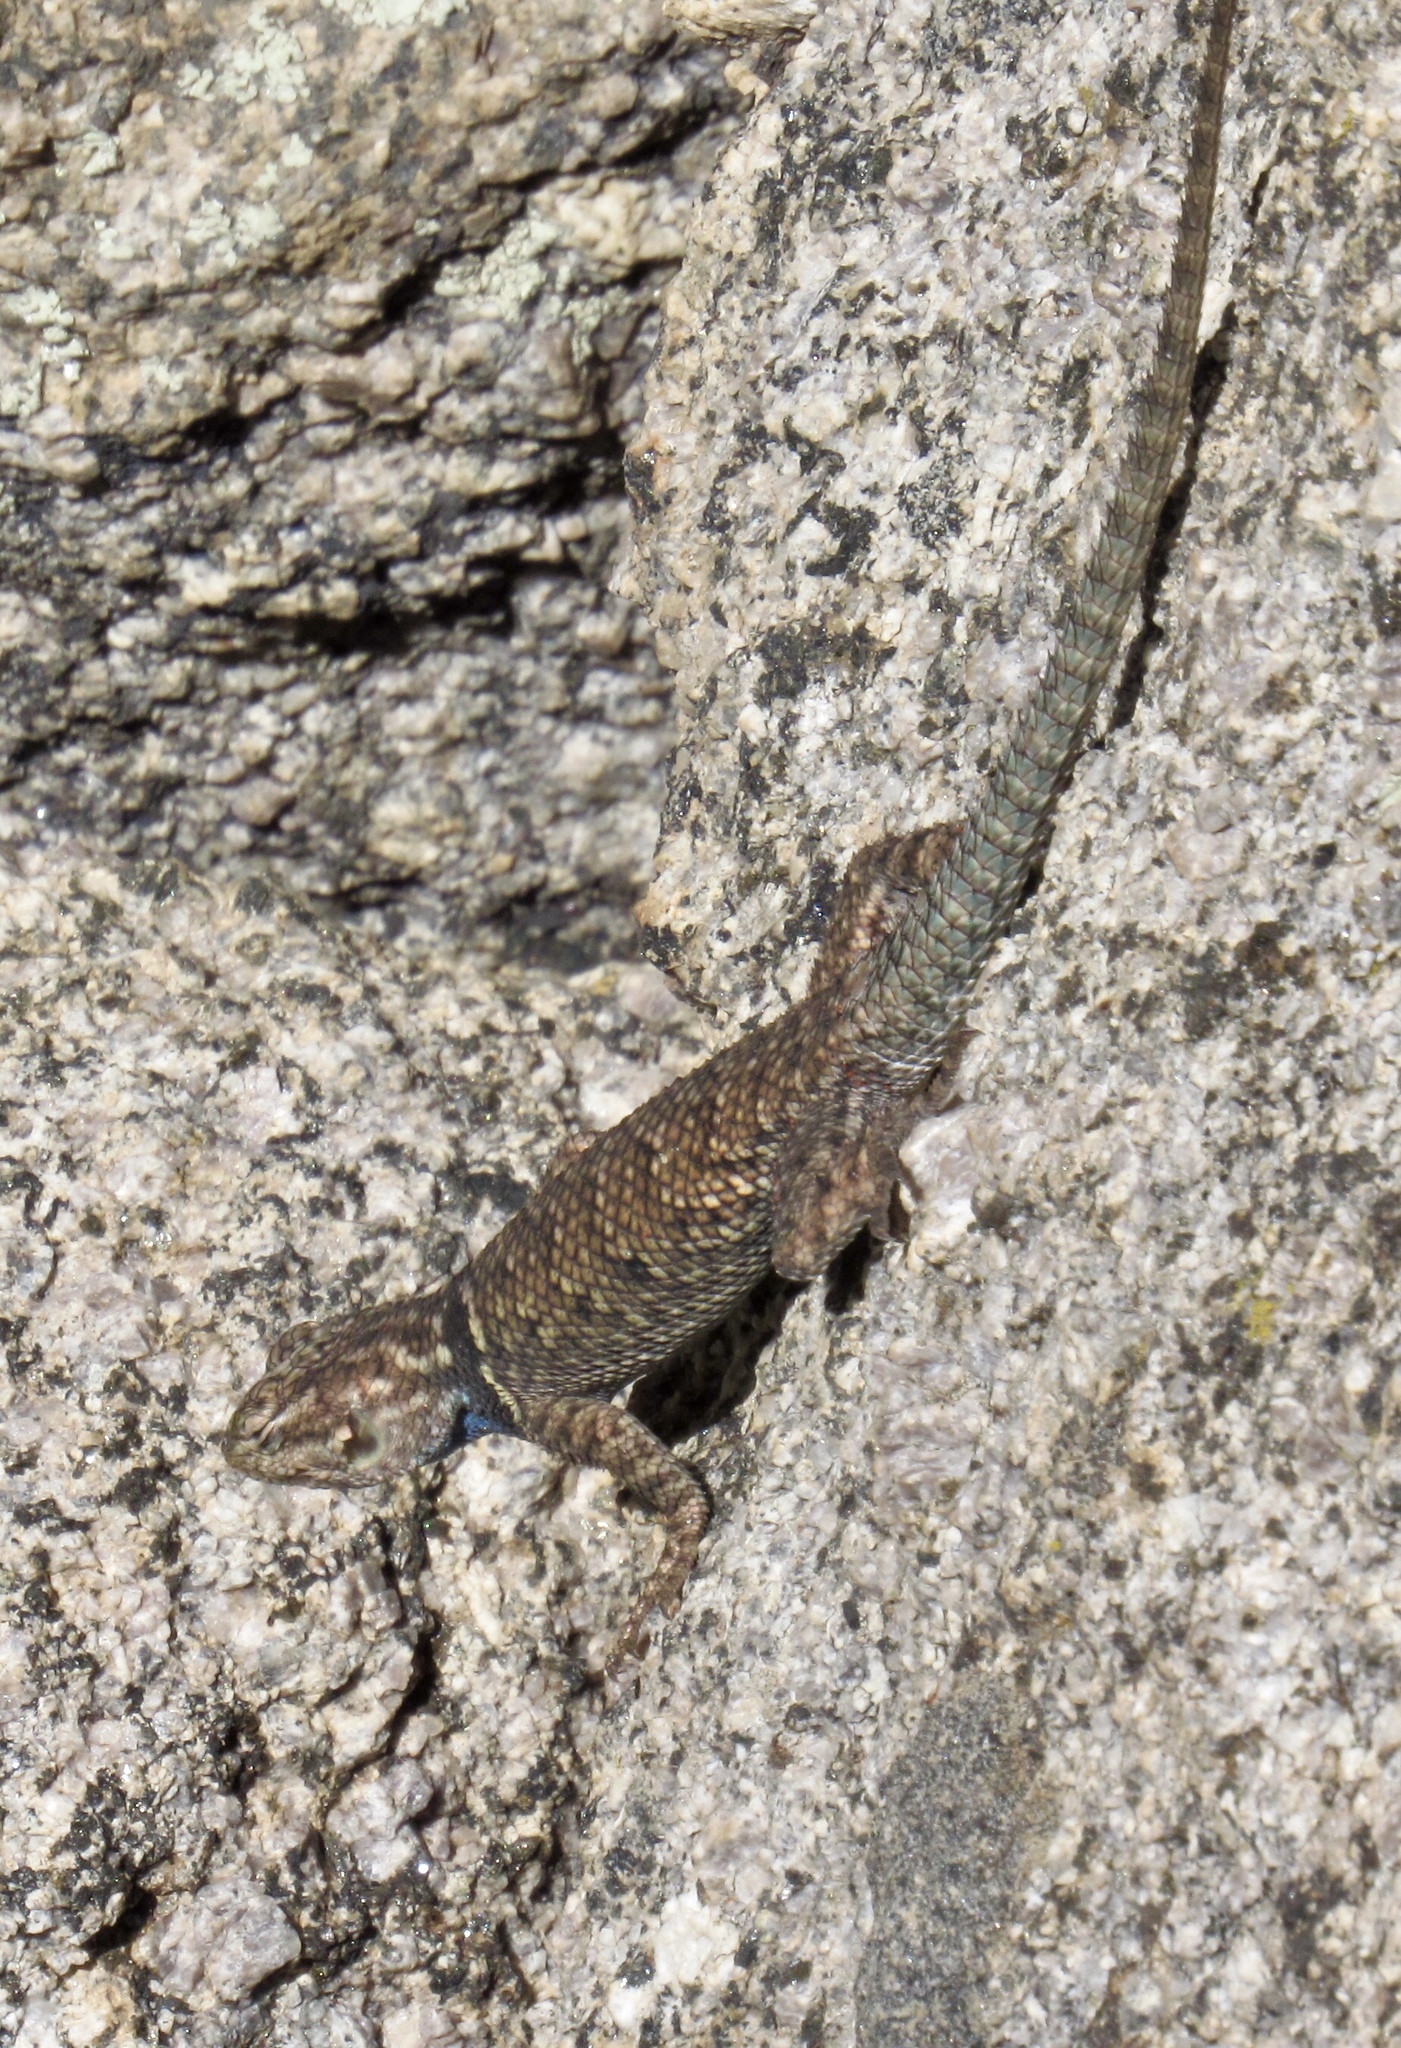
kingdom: Animalia
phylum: Chordata
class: Squamata
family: Phrynosomatidae
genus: Sceloporus
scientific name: Sceloporus jarrovii
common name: Yarrow's spiny lizard
